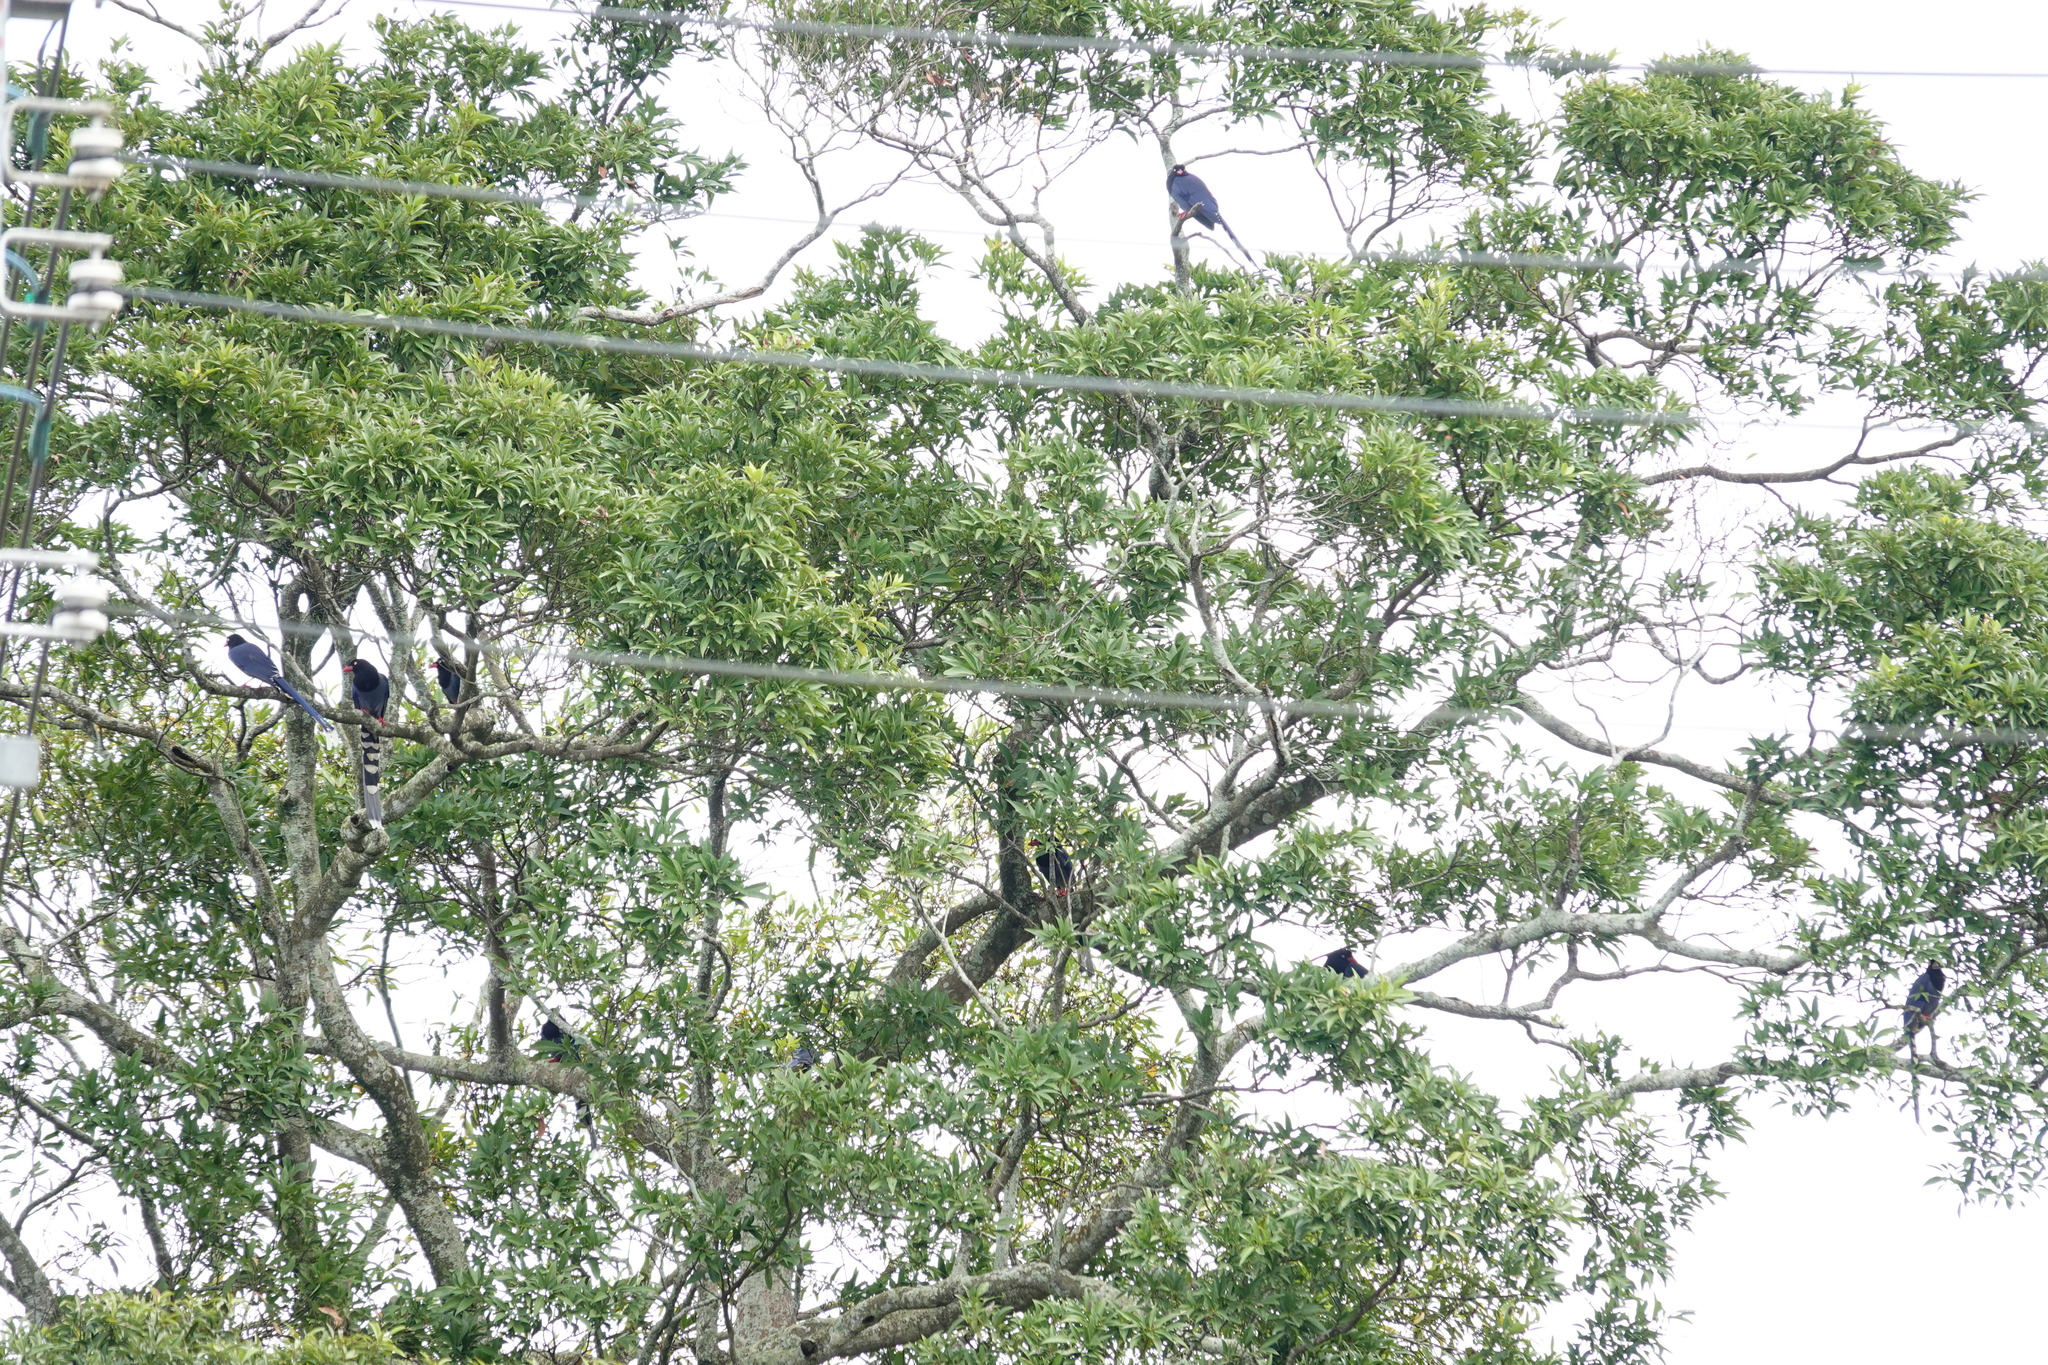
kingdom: Animalia
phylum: Chordata
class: Aves
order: Passeriformes
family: Corvidae
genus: Urocissa
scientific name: Urocissa caerulea
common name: Taiwan blue magpie
